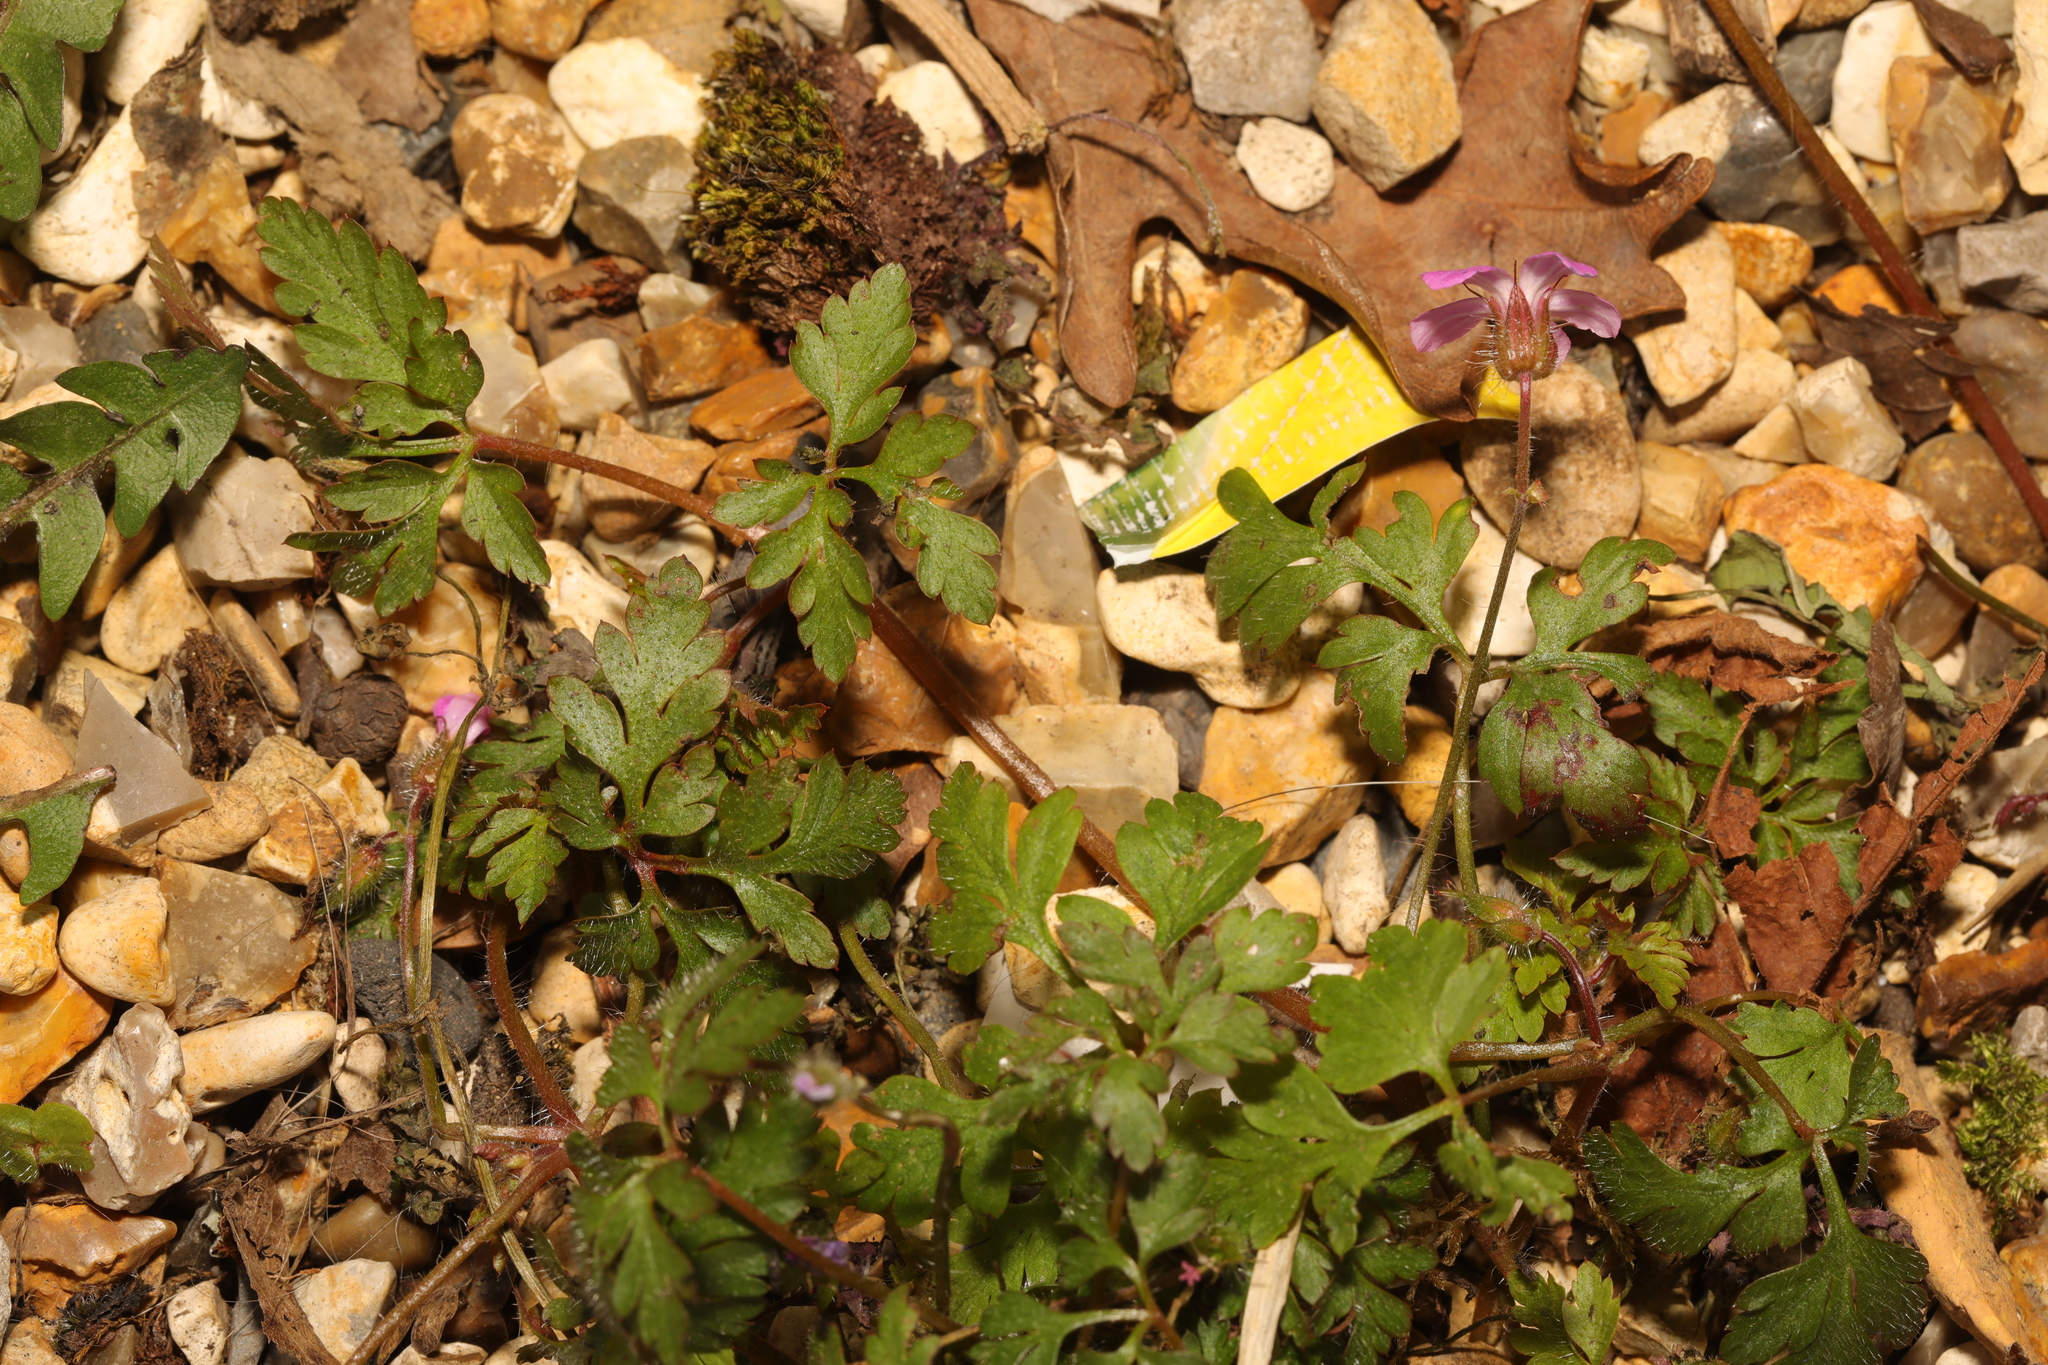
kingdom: Plantae
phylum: Tracheophyta
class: Magnoliopsida
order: Geraniales
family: Geraniaceae
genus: Geranium
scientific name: Geranium robertianum
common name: Herb-robert
